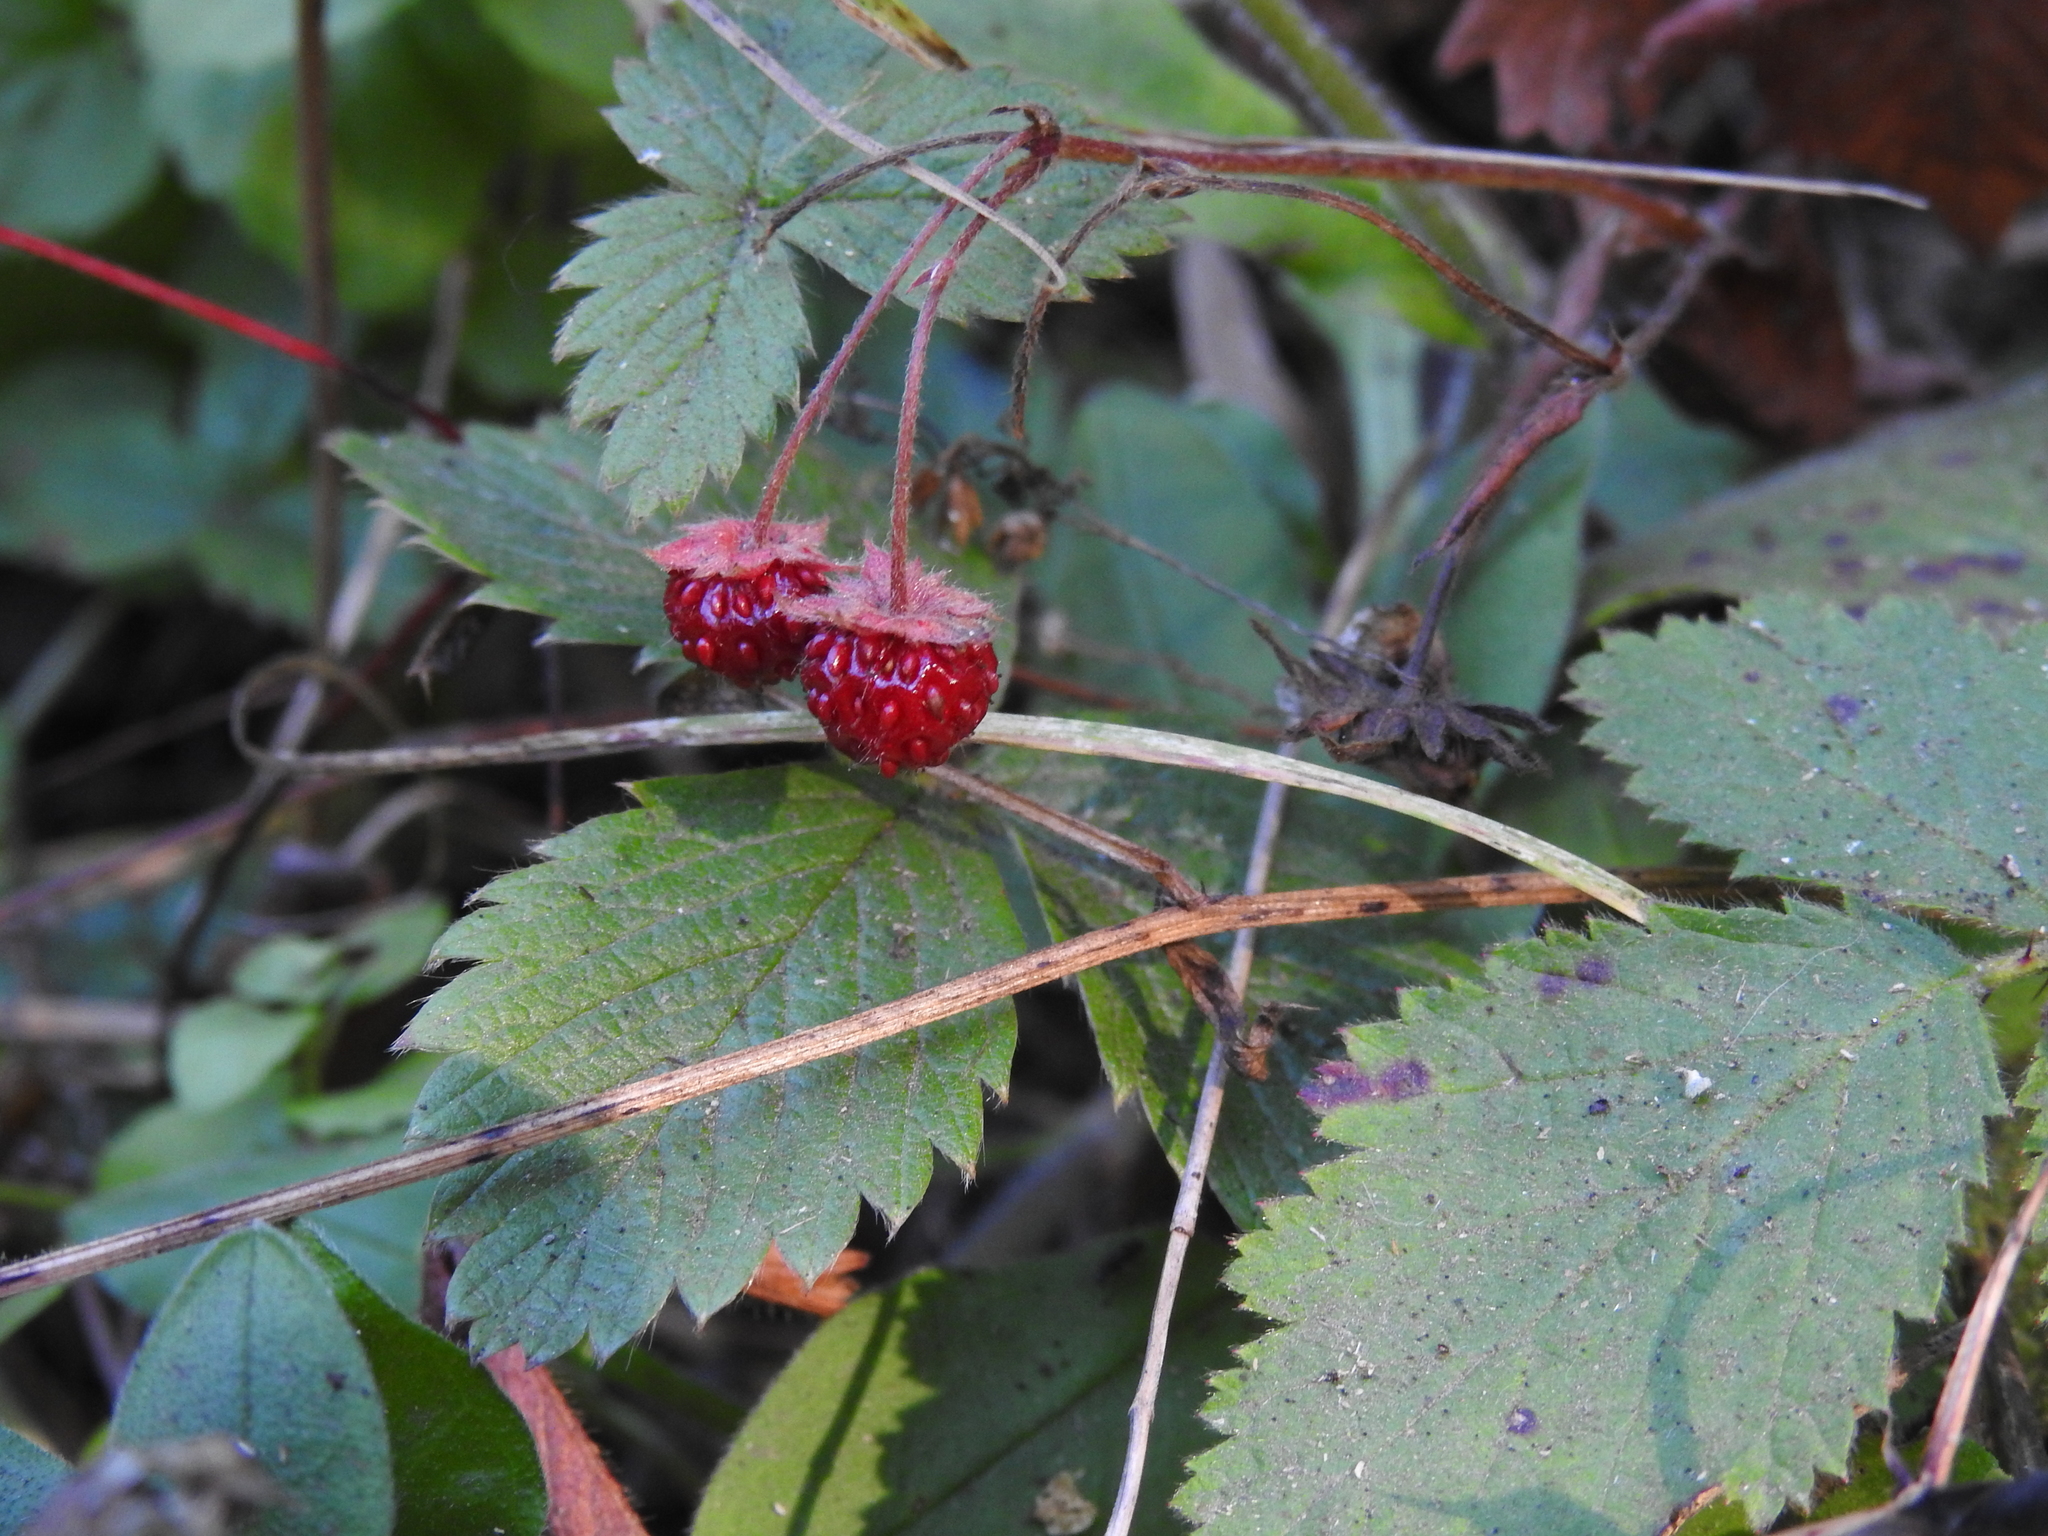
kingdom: Plantae
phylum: Tracheophyta
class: Magnoliopsida
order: Rosales
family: Rosaceae
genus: Fragaria
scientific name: Fragaria vesca
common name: Wild strawberry
